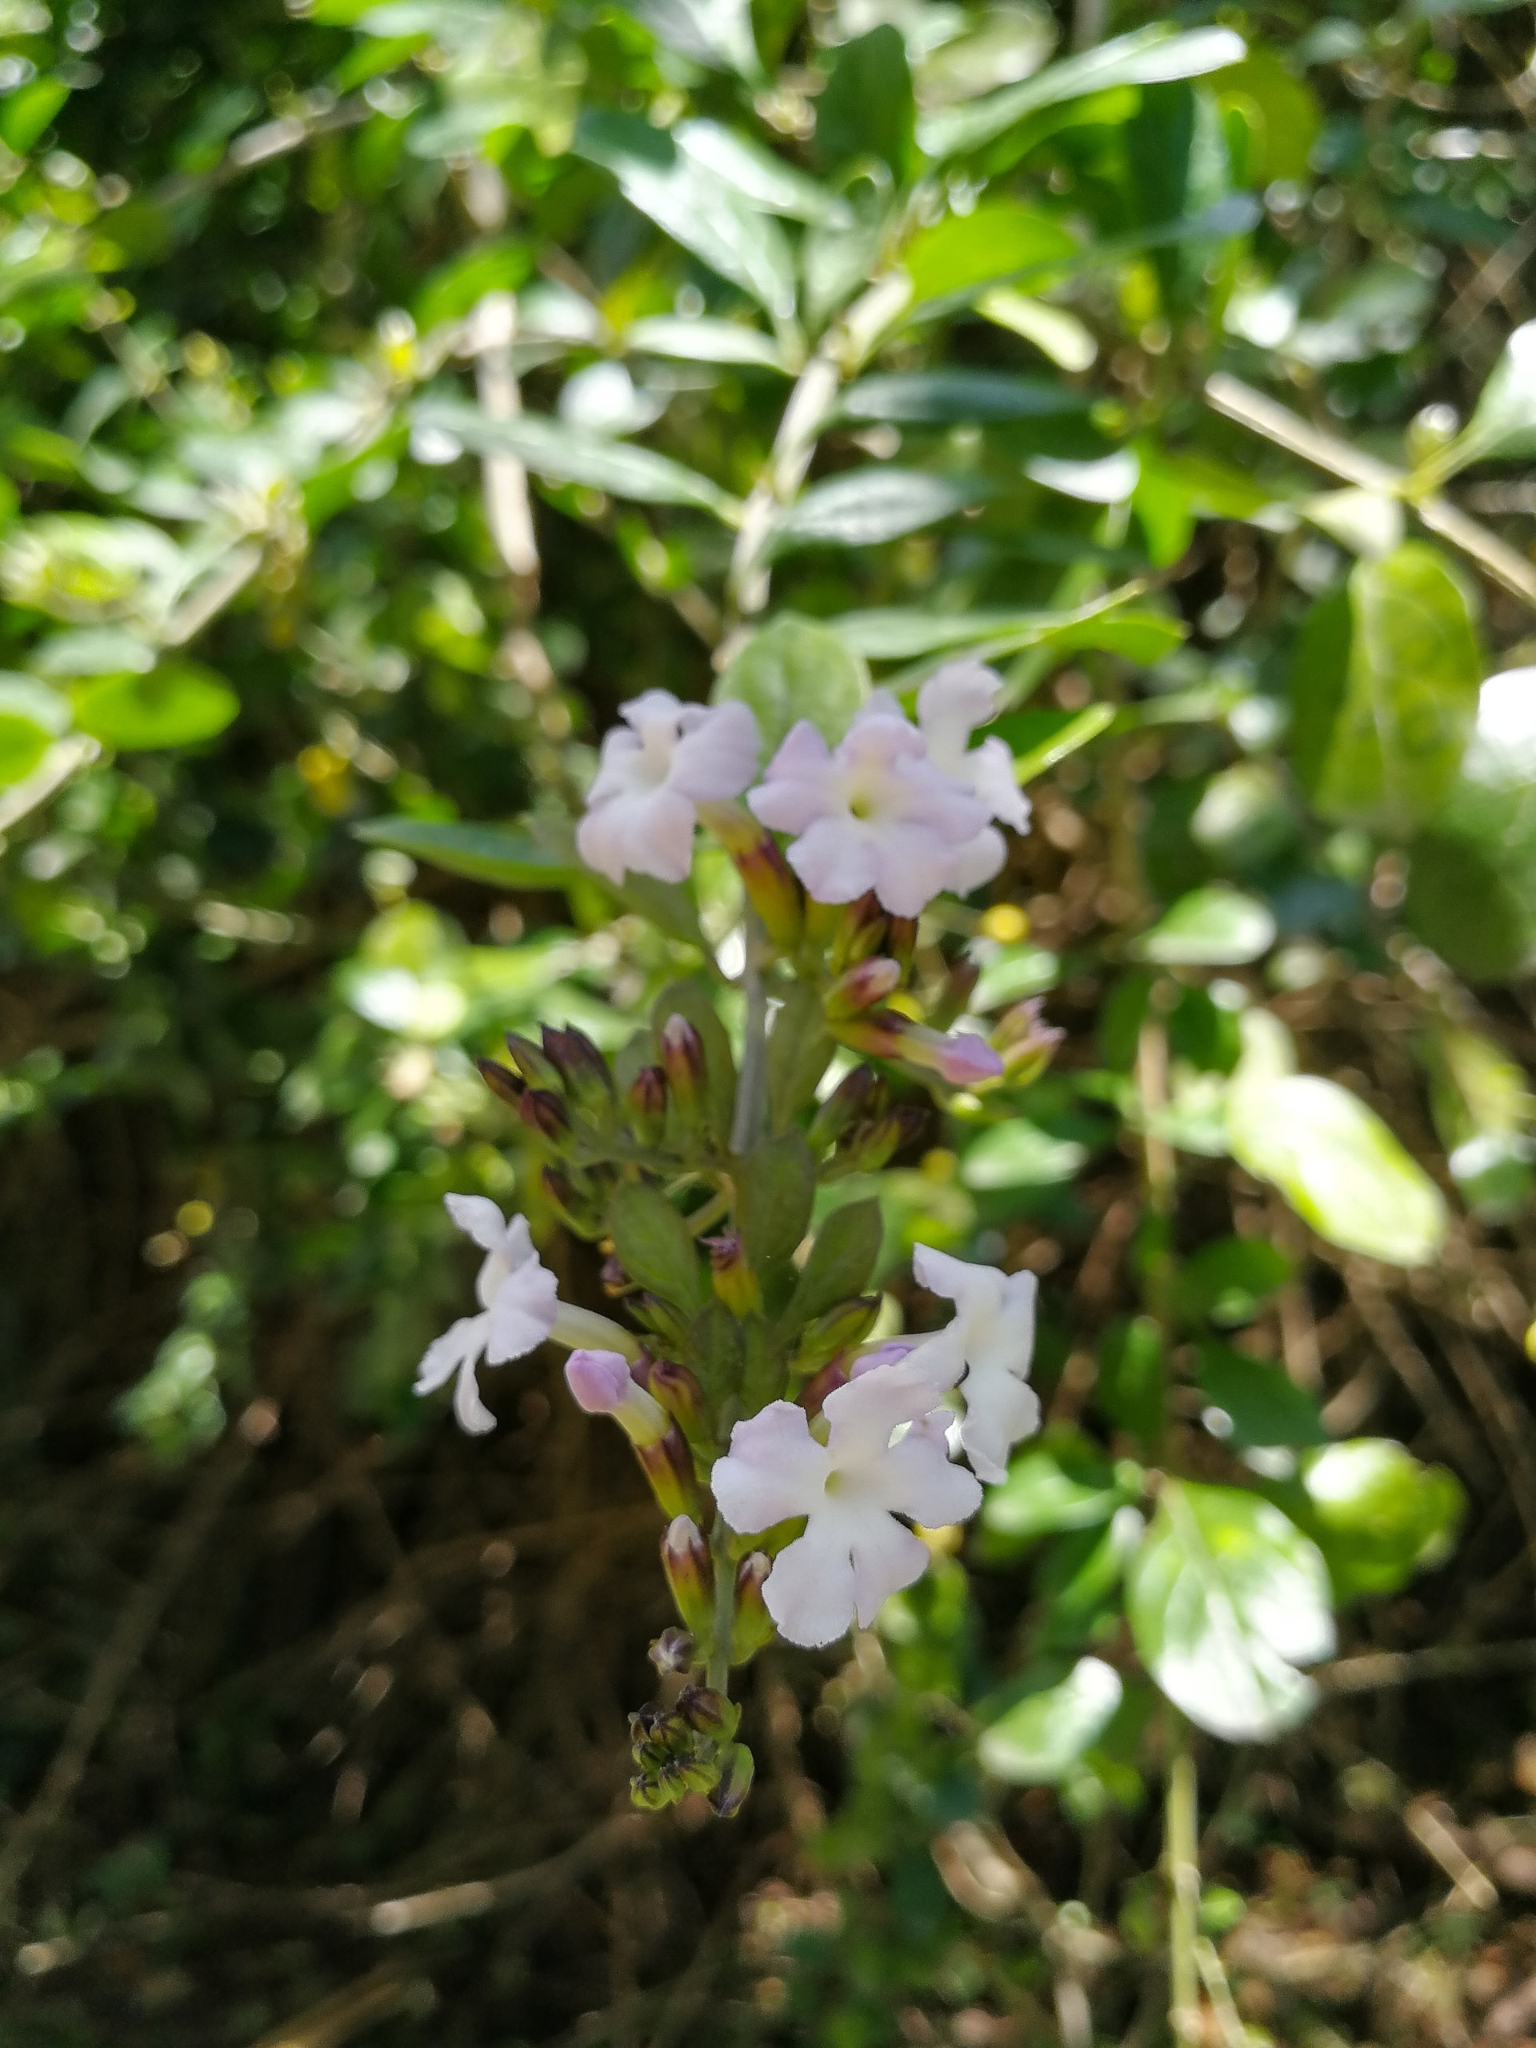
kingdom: Plantae
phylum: Tracheophyta
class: Magnoliopsida
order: Lamiales
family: Verbenaceae
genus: Duranta
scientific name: Duranta triacantha
